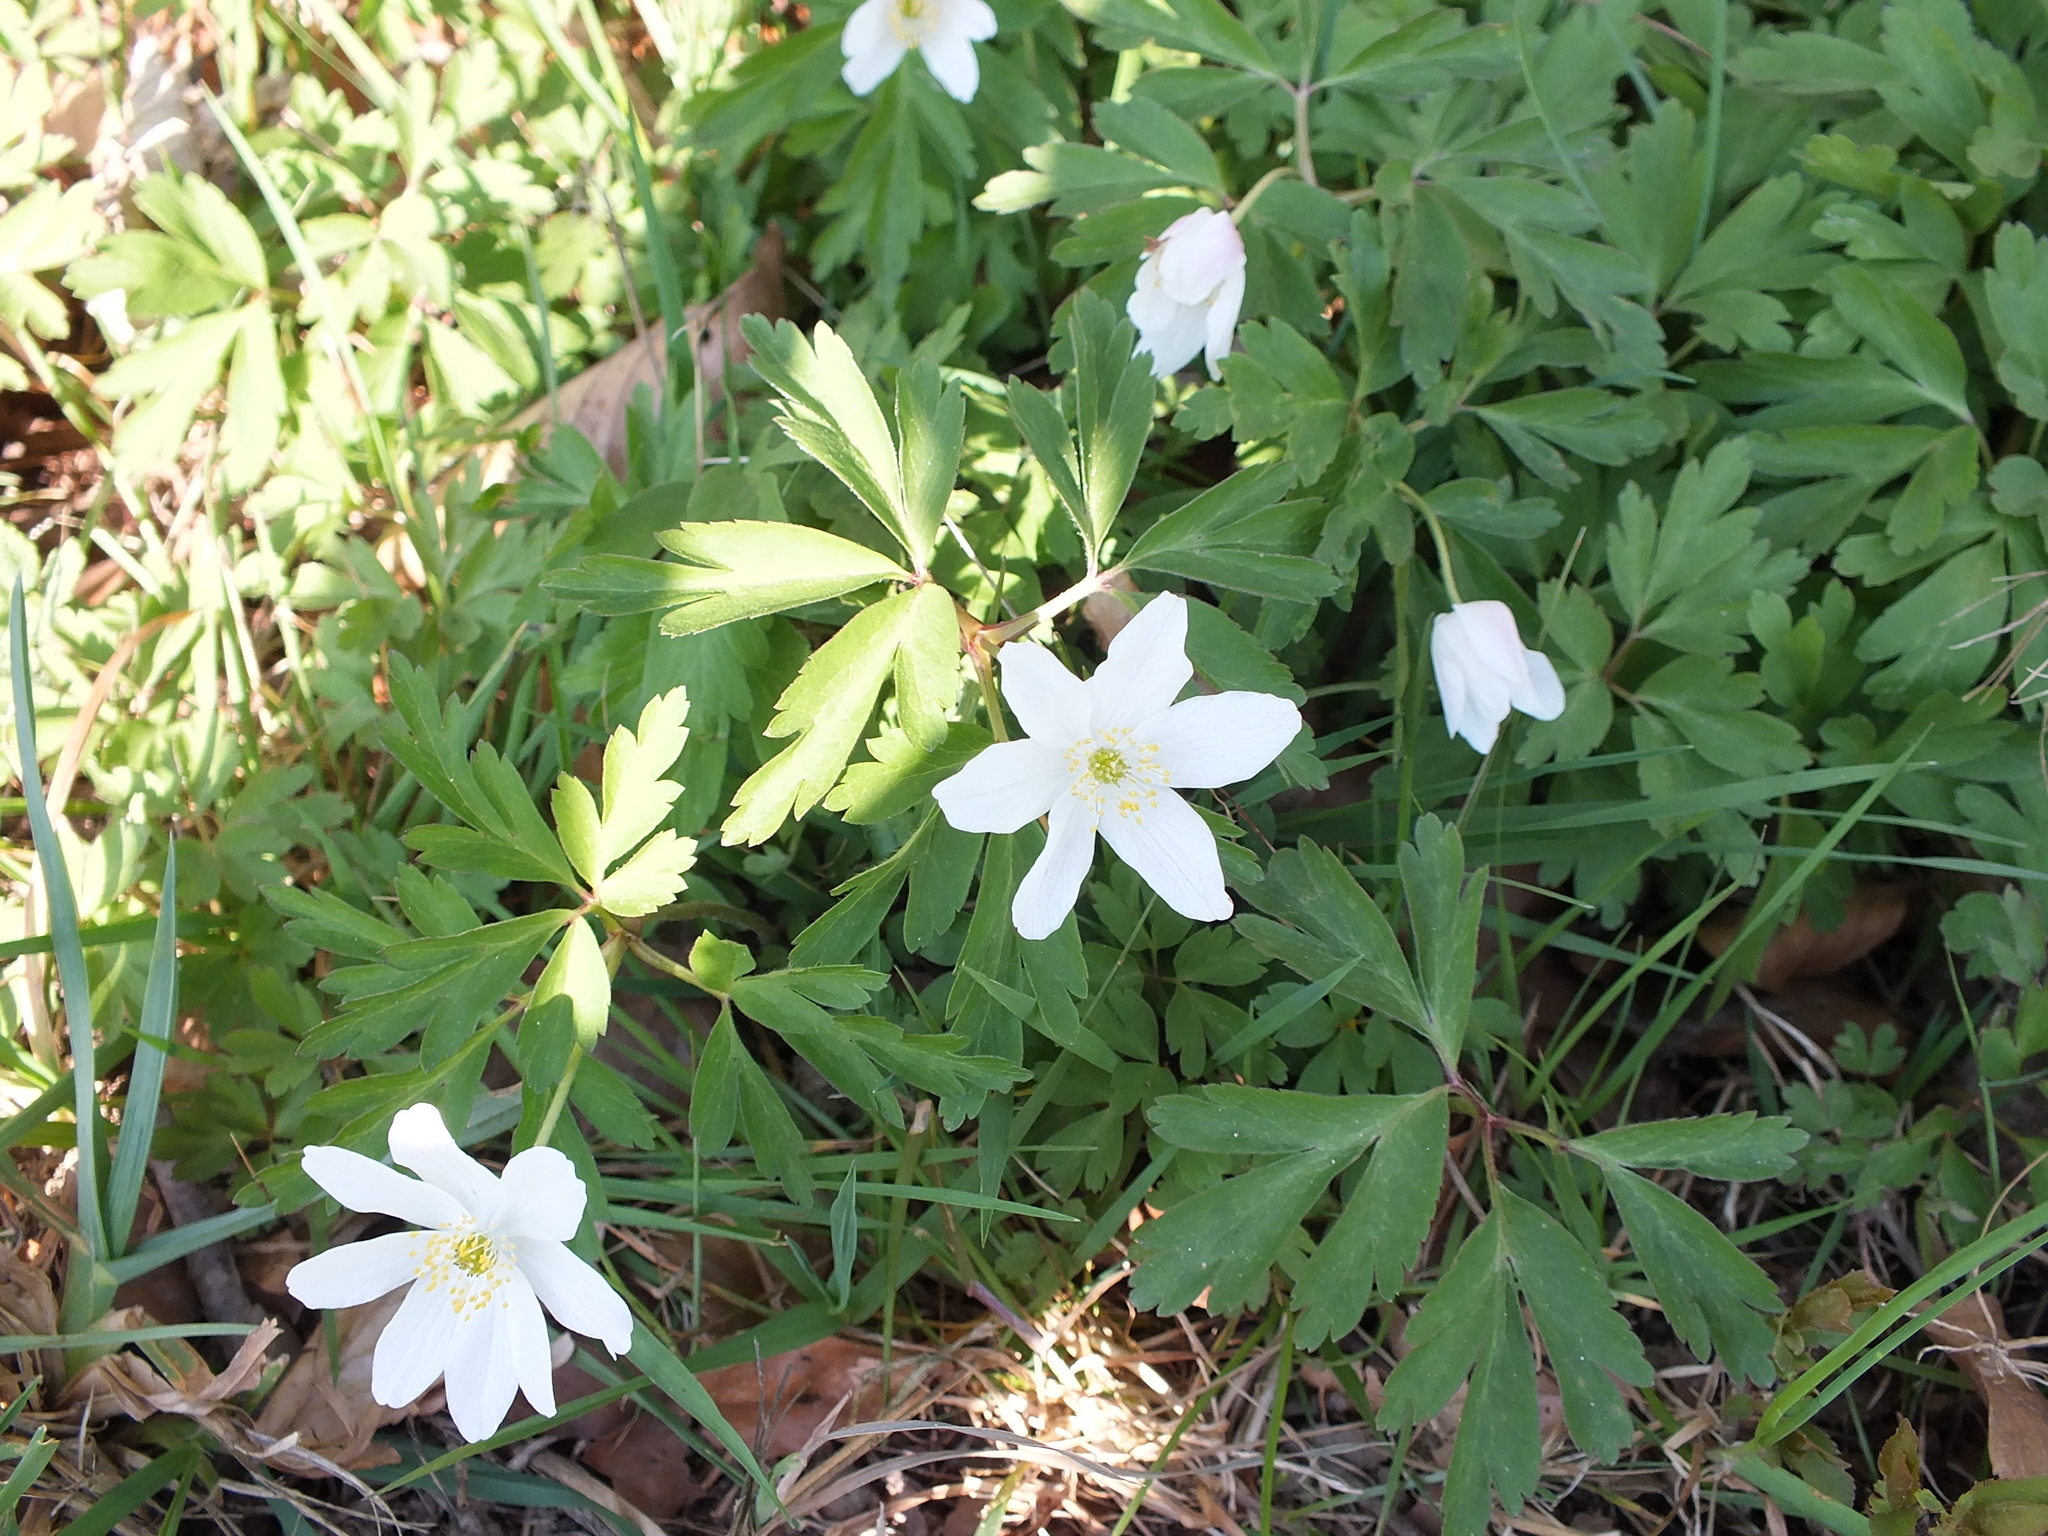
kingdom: Plantae
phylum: Tracheophyta
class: Magnoliopsida
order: Ranunculales
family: Ranunculaceae
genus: Anemone
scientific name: Anemone nemorosa
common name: Wood anemone
